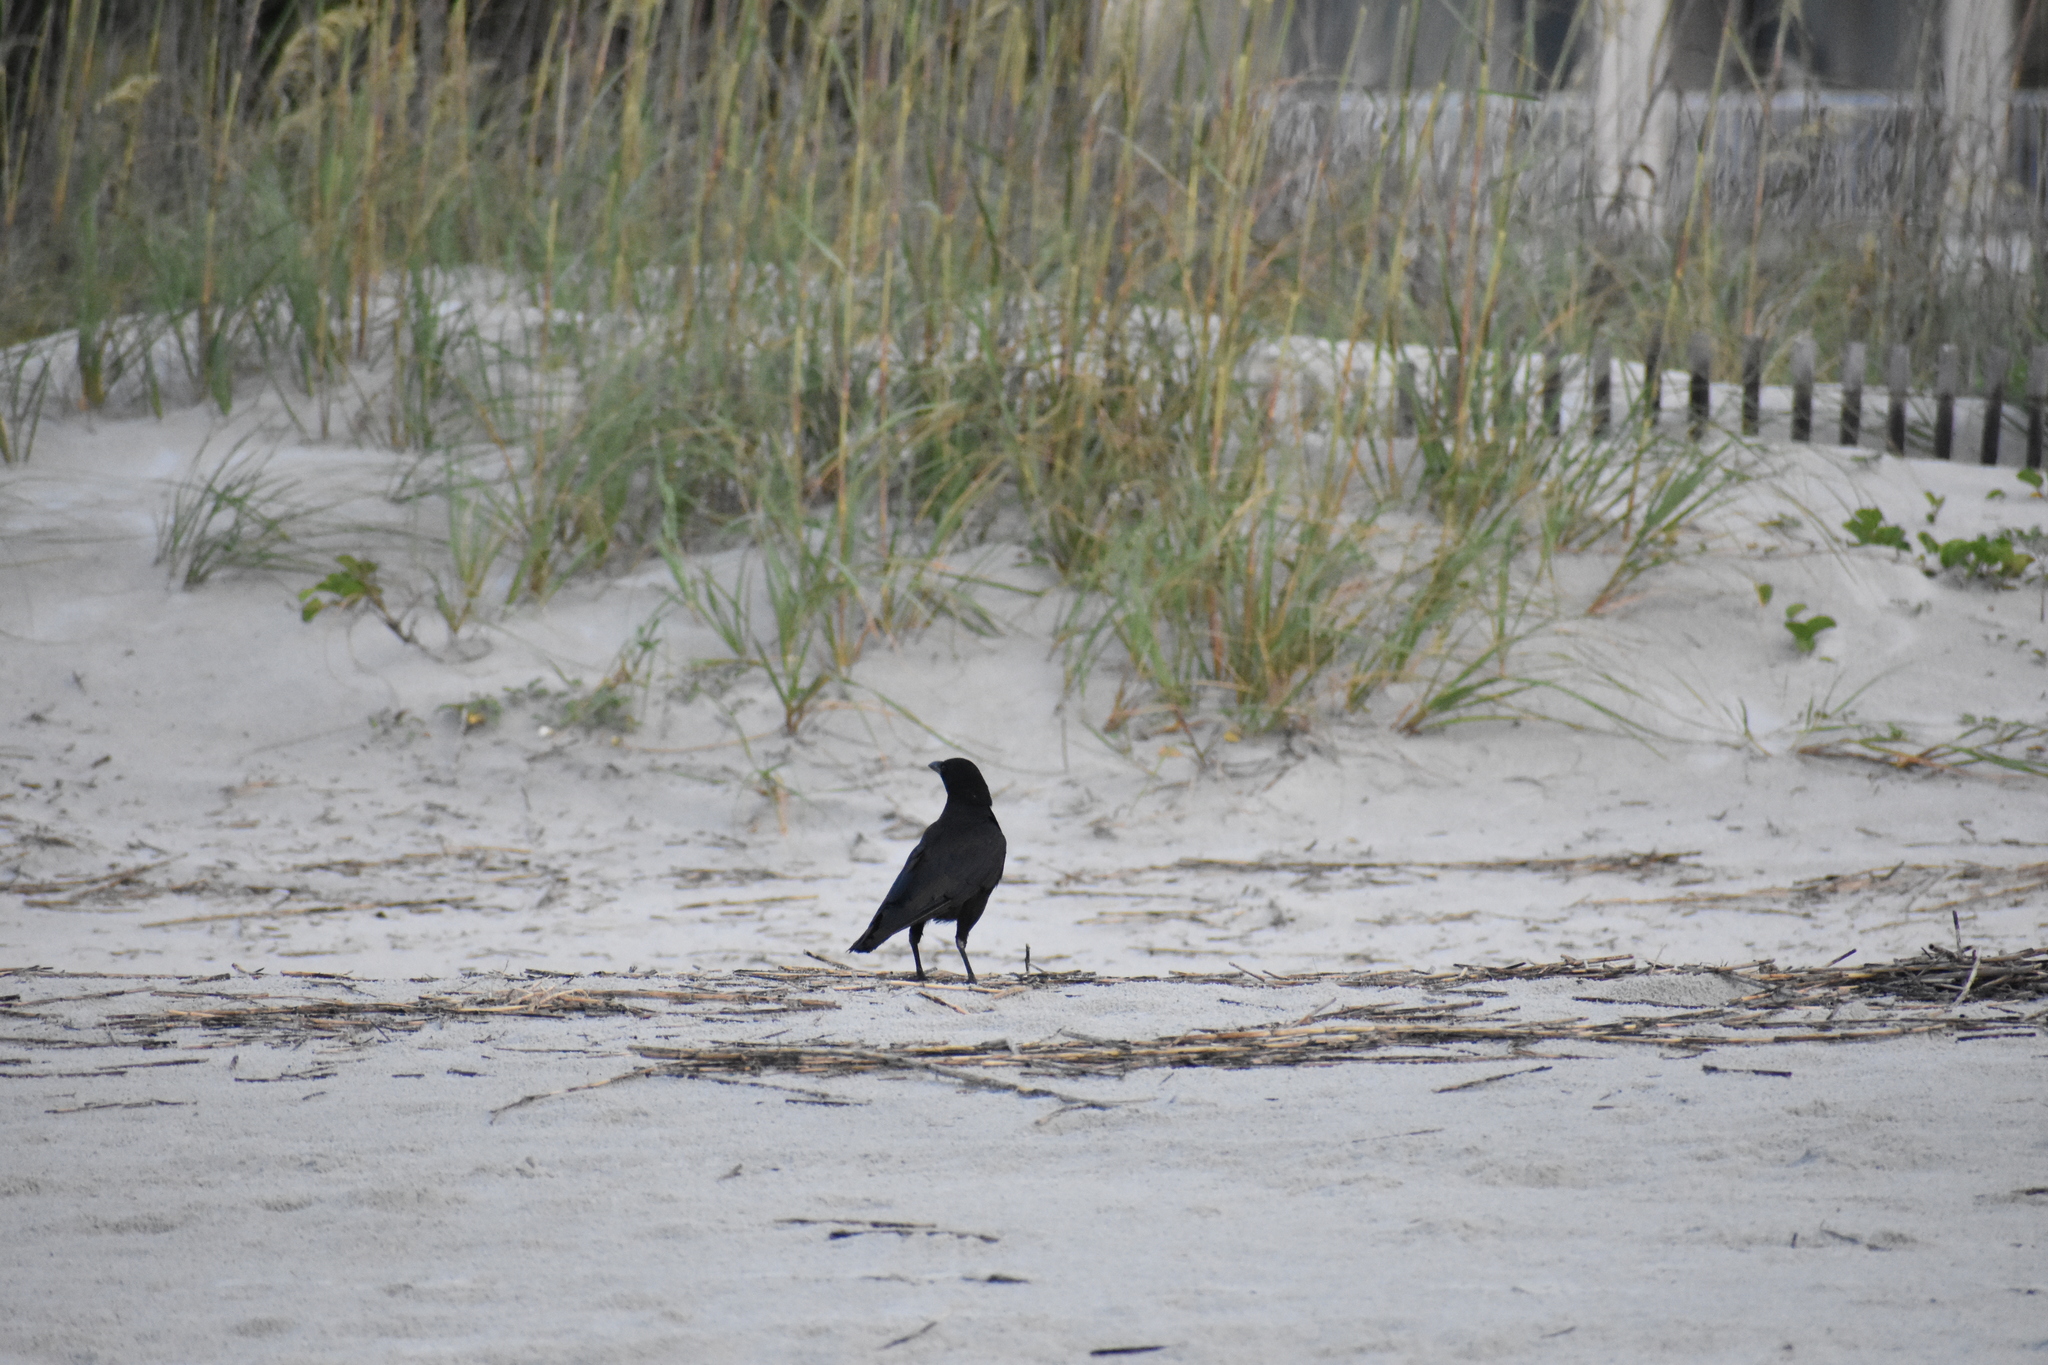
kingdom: Animalia
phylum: Chordata
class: Aves
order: Passeriformes
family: Corvidae
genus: Corvus
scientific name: Corvus ossifragus
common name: Fish crow
